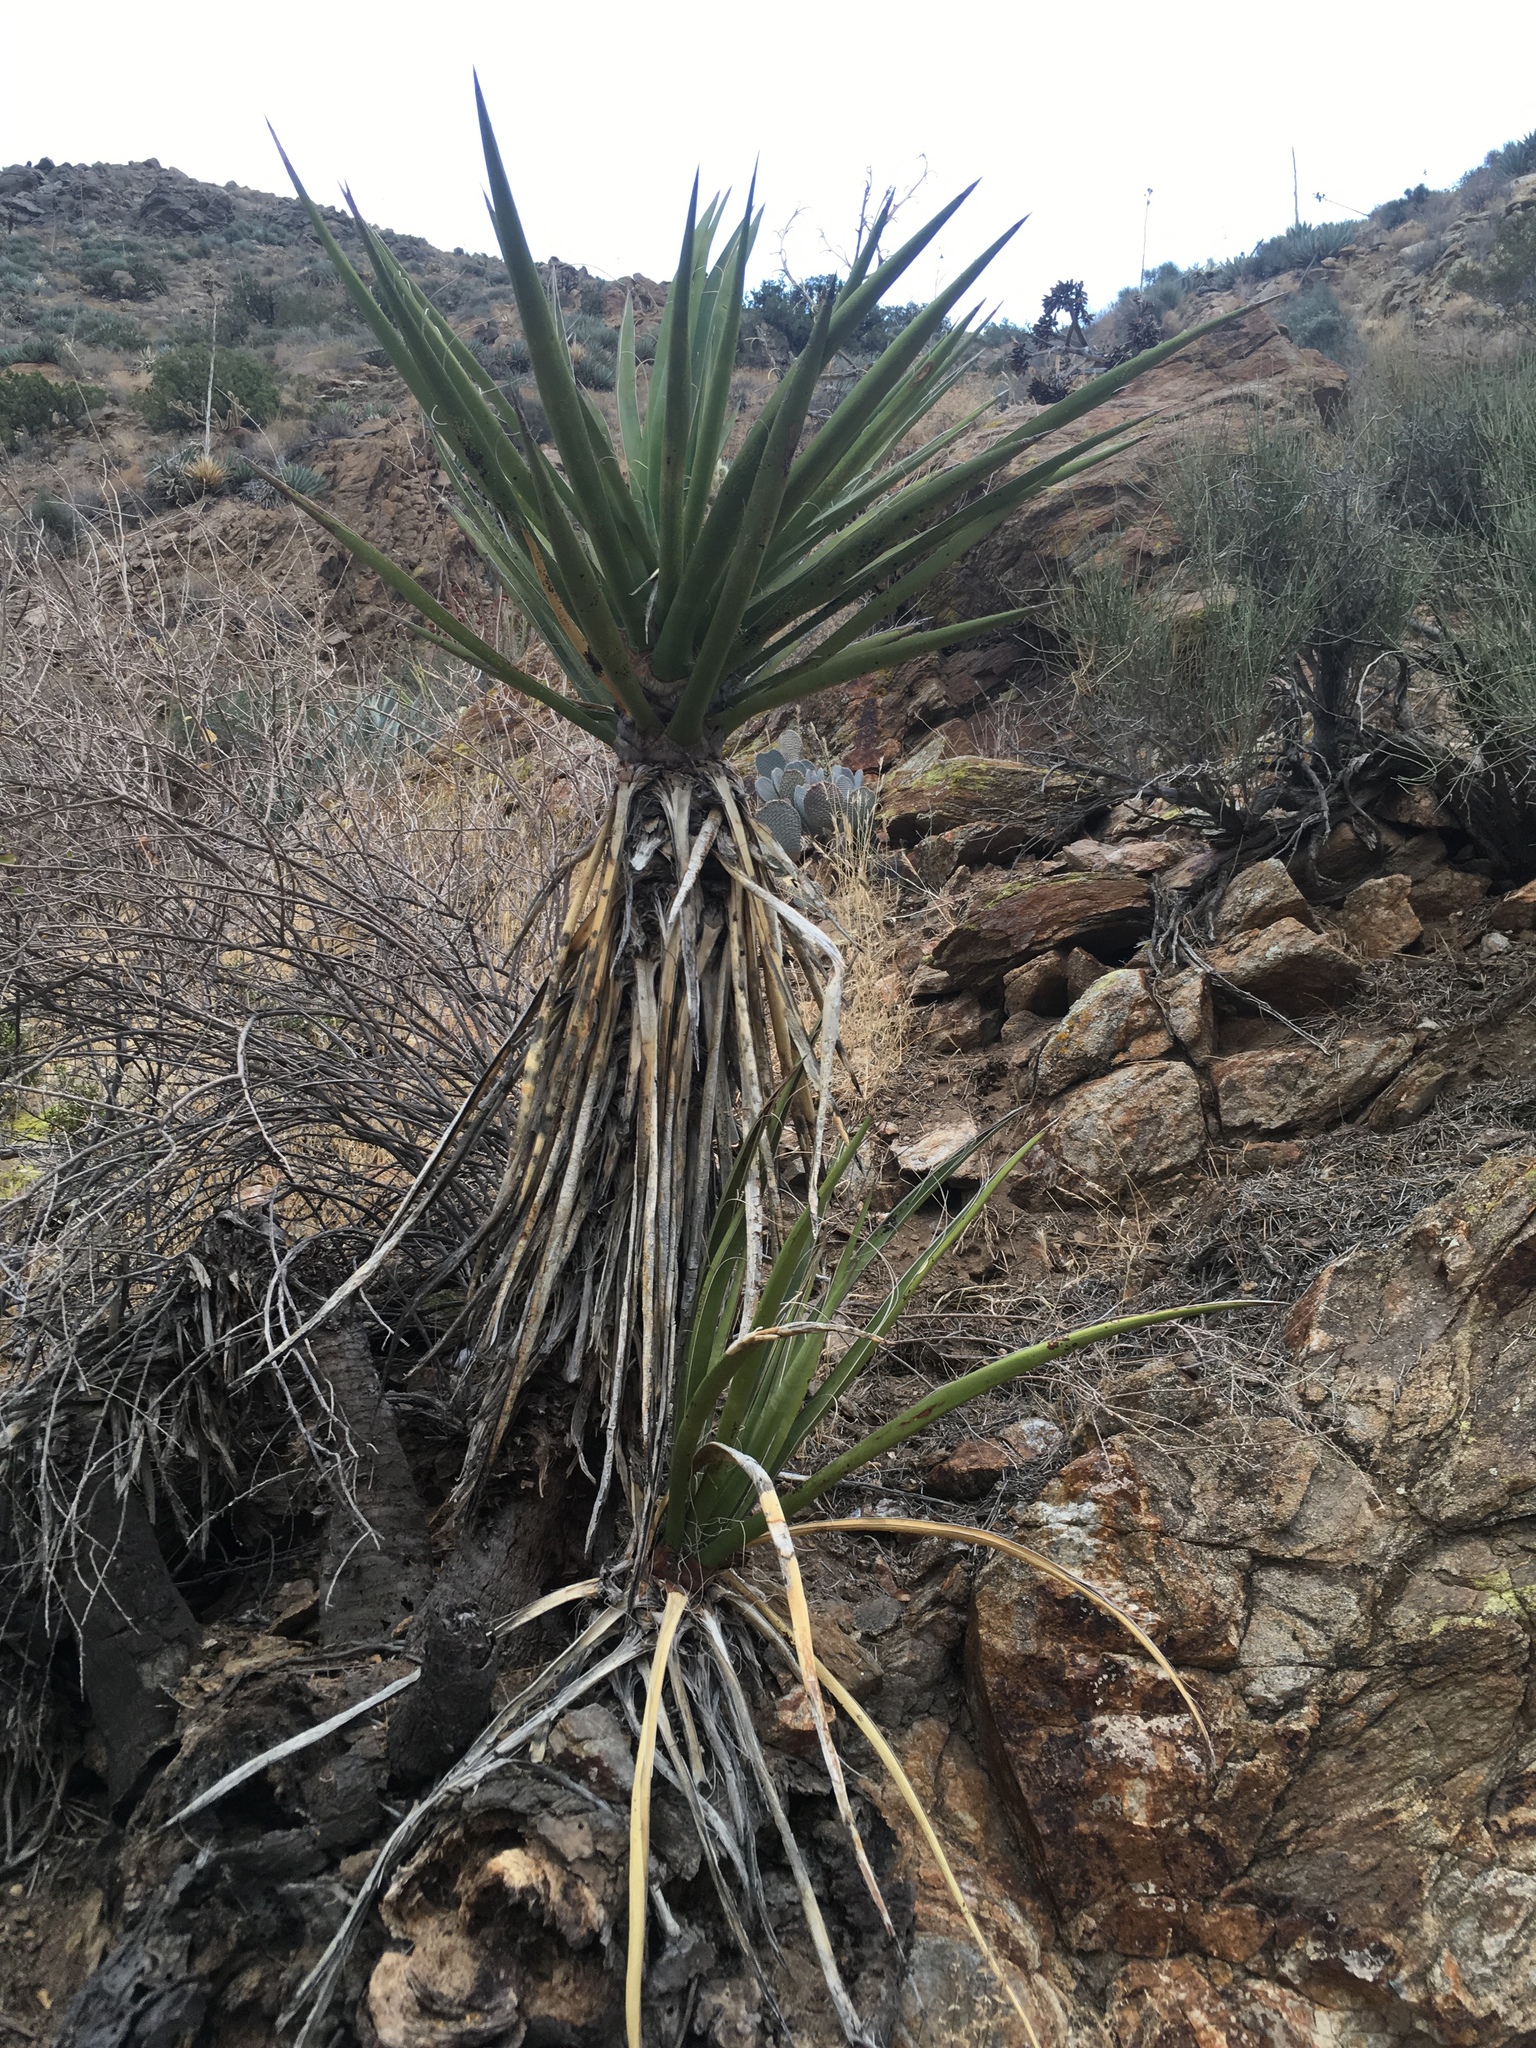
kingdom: Plantae
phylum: Tracheophyta
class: Liliopsida
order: Asparagales
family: Asparagaceae
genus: Yucca
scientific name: Yucca schidigera
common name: Mojave yucca
